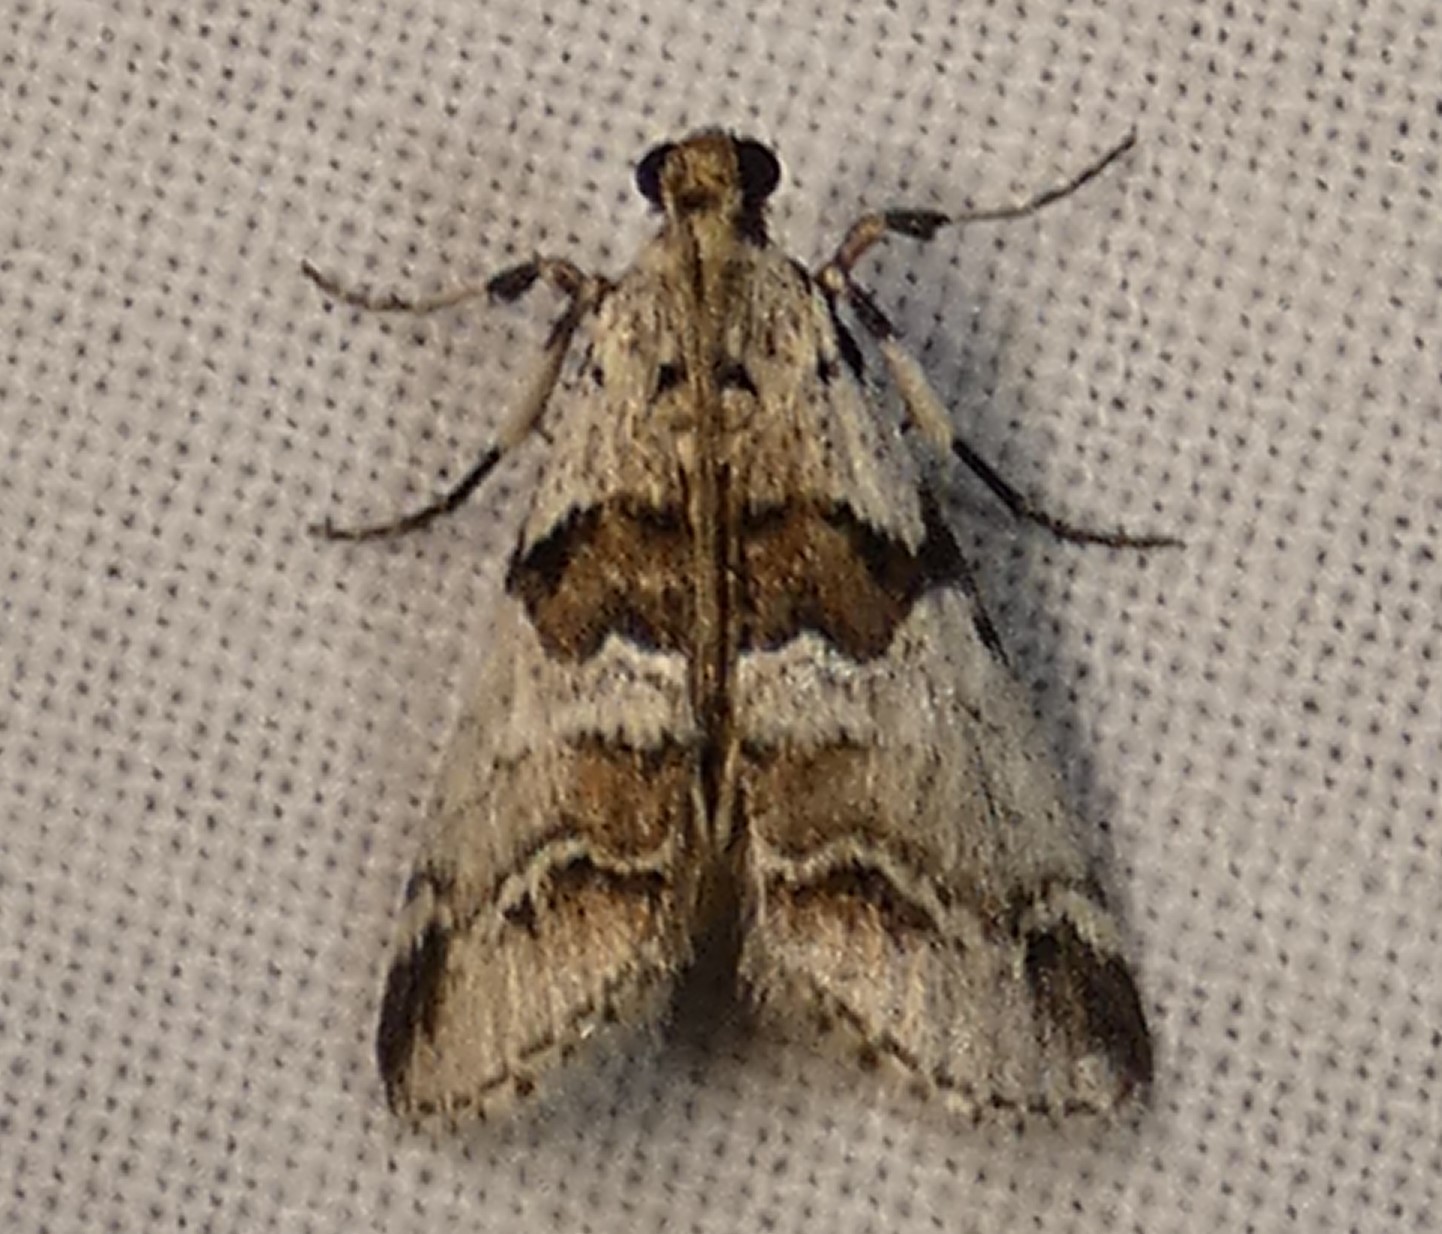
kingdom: Animalia
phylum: Arthropoda
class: Insecta
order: Lepidoptera
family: Pyralidae
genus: Tallula
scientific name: Tallula atrifascialis
